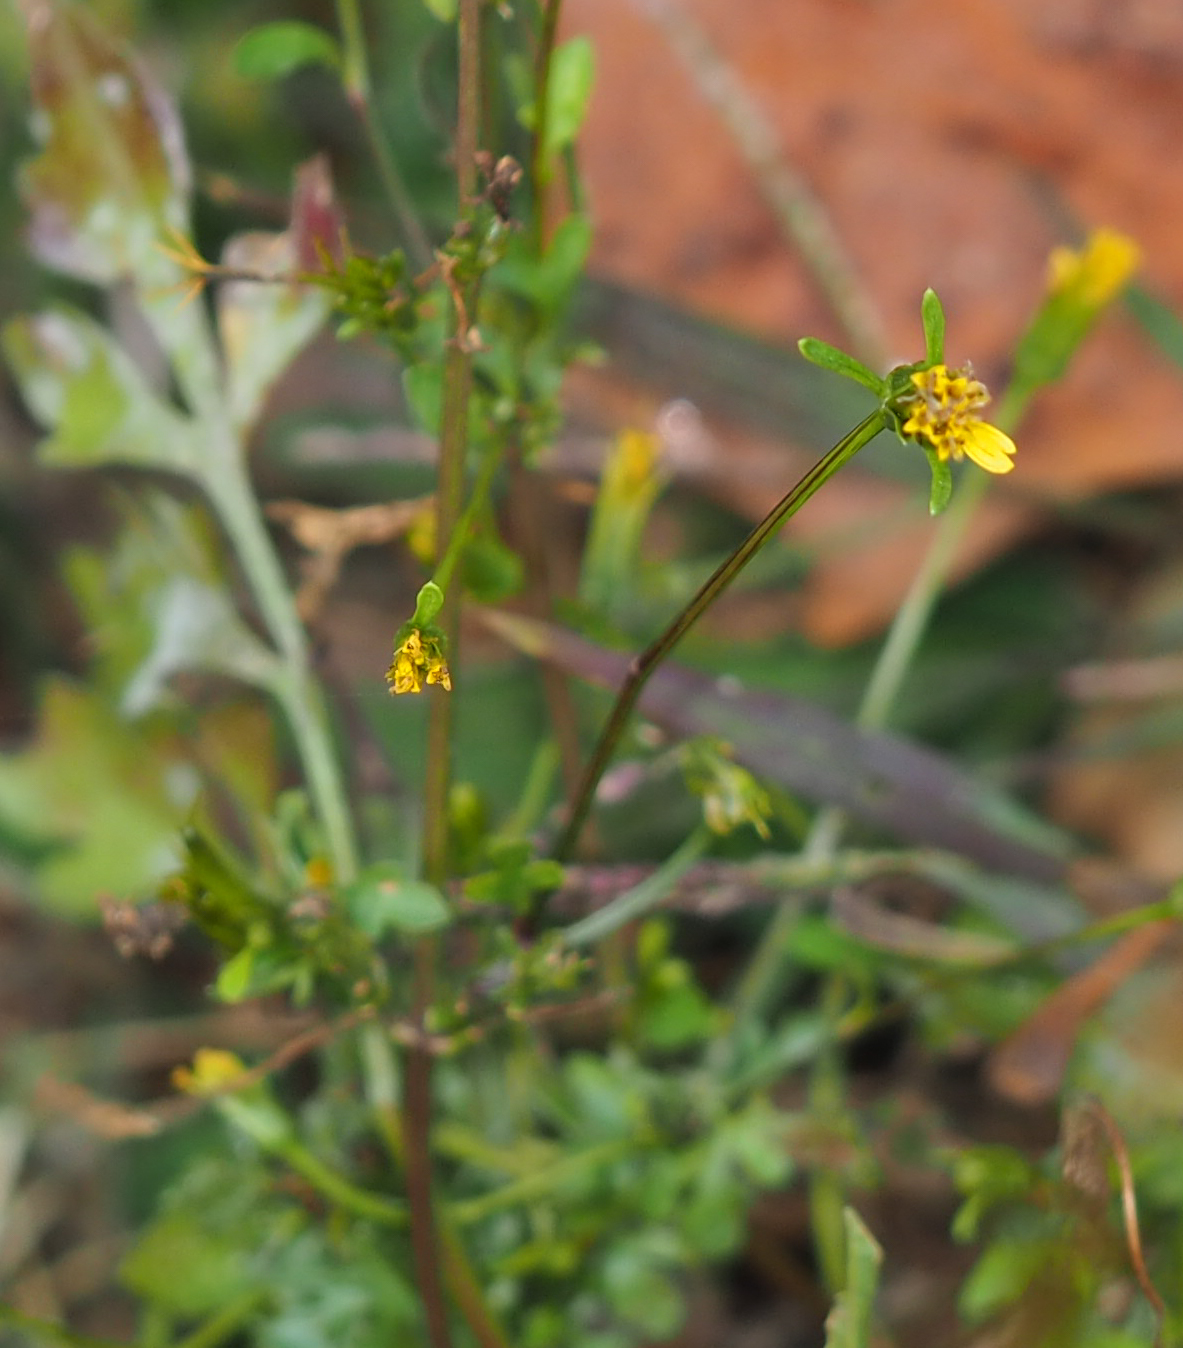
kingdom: Plantae
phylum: Tracheophyta
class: Magnoliopsida
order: Asterales
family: Asteraceae
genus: Bidens
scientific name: Bidens bipinnata
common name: Spanish-needles
